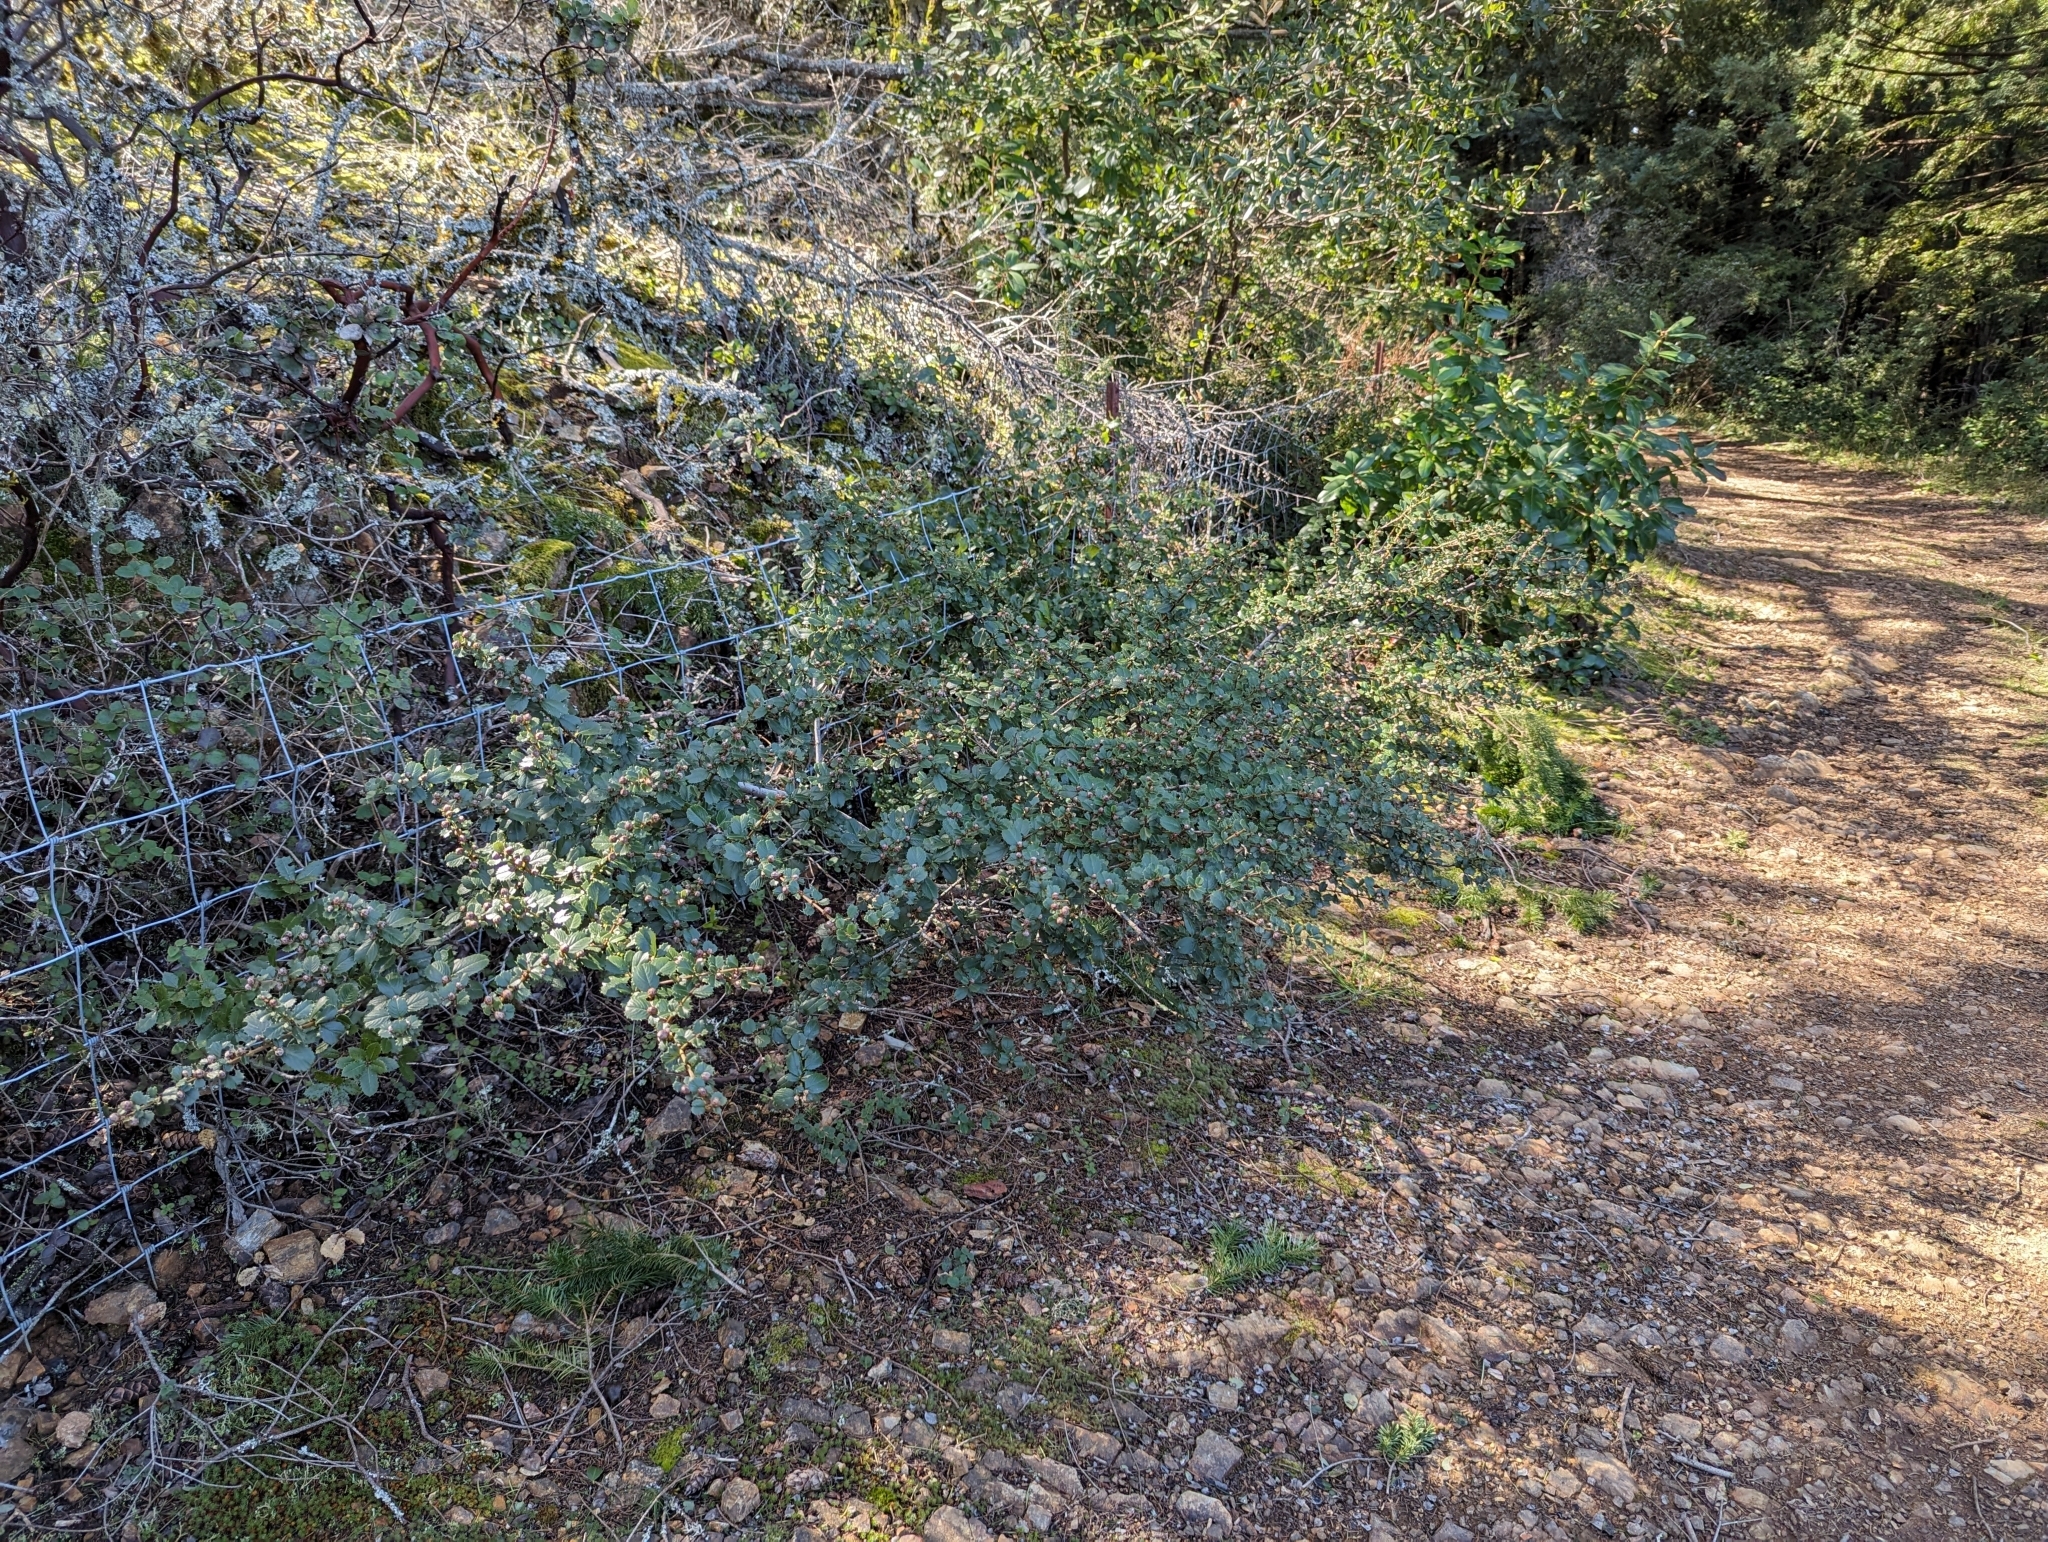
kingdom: Plantae
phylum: Tracheophyta
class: Magnoliopsida
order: Rosales
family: Rhamnaceae
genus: Ceanothus
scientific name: Ceanothus gloriosus
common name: Point reyes ceanothus
